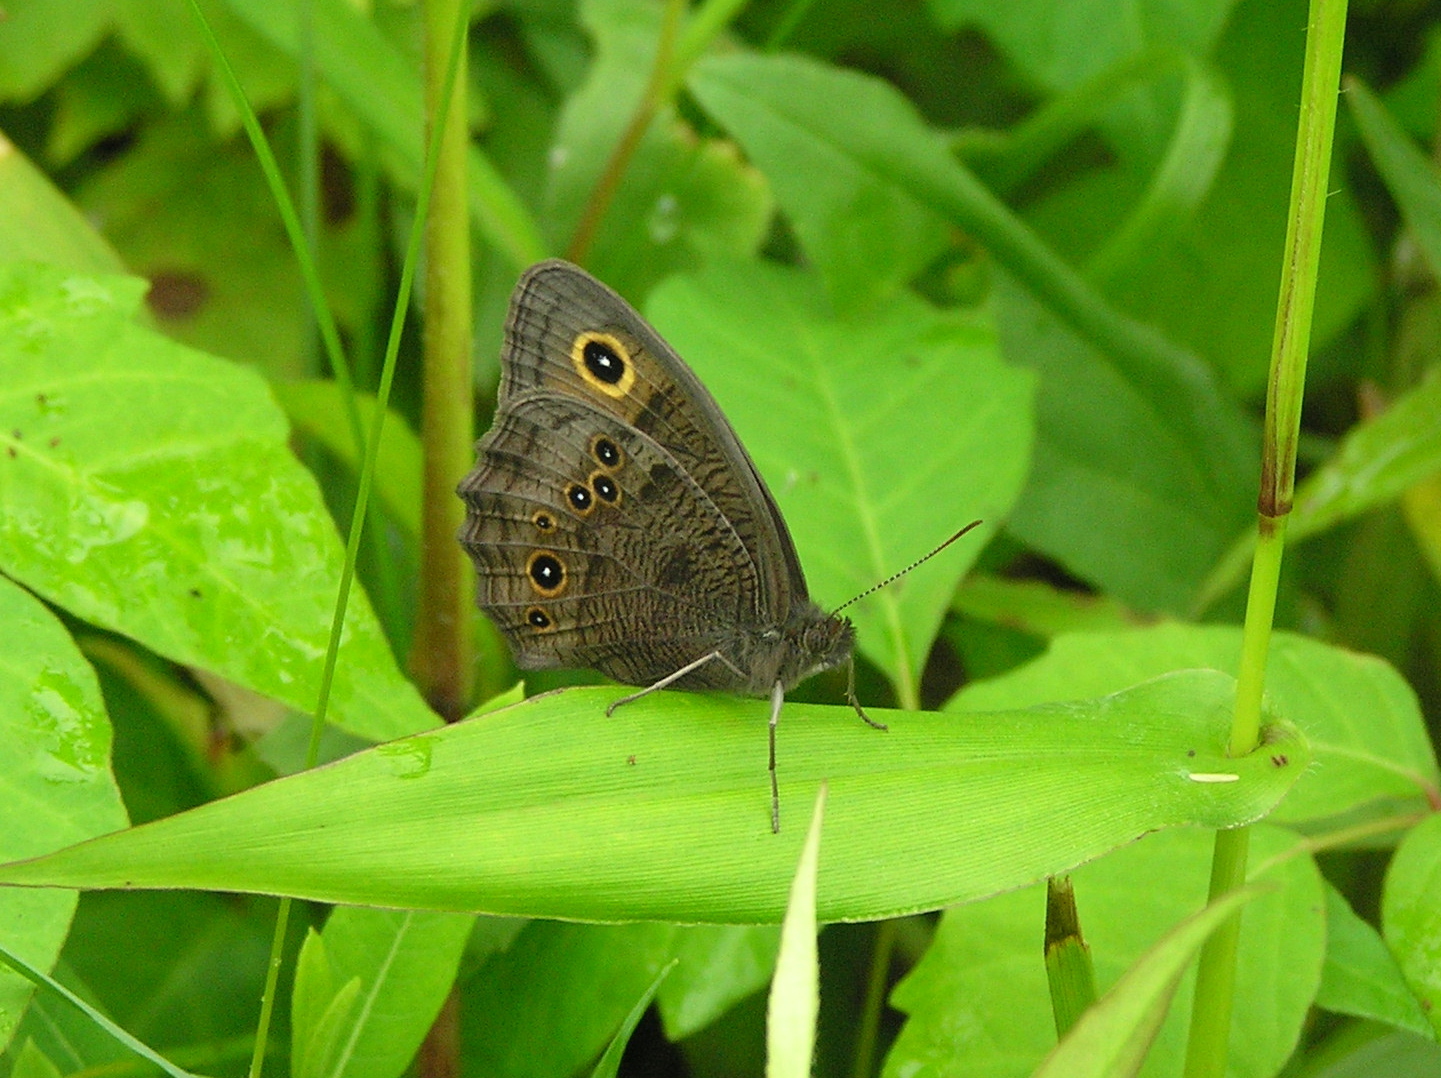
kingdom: Animalia
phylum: Arthropoda
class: Insecta
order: Lepidoptera
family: Nymphalidae
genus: Cercyonis
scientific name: Cercyonis pegala
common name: Common wood-nymph
